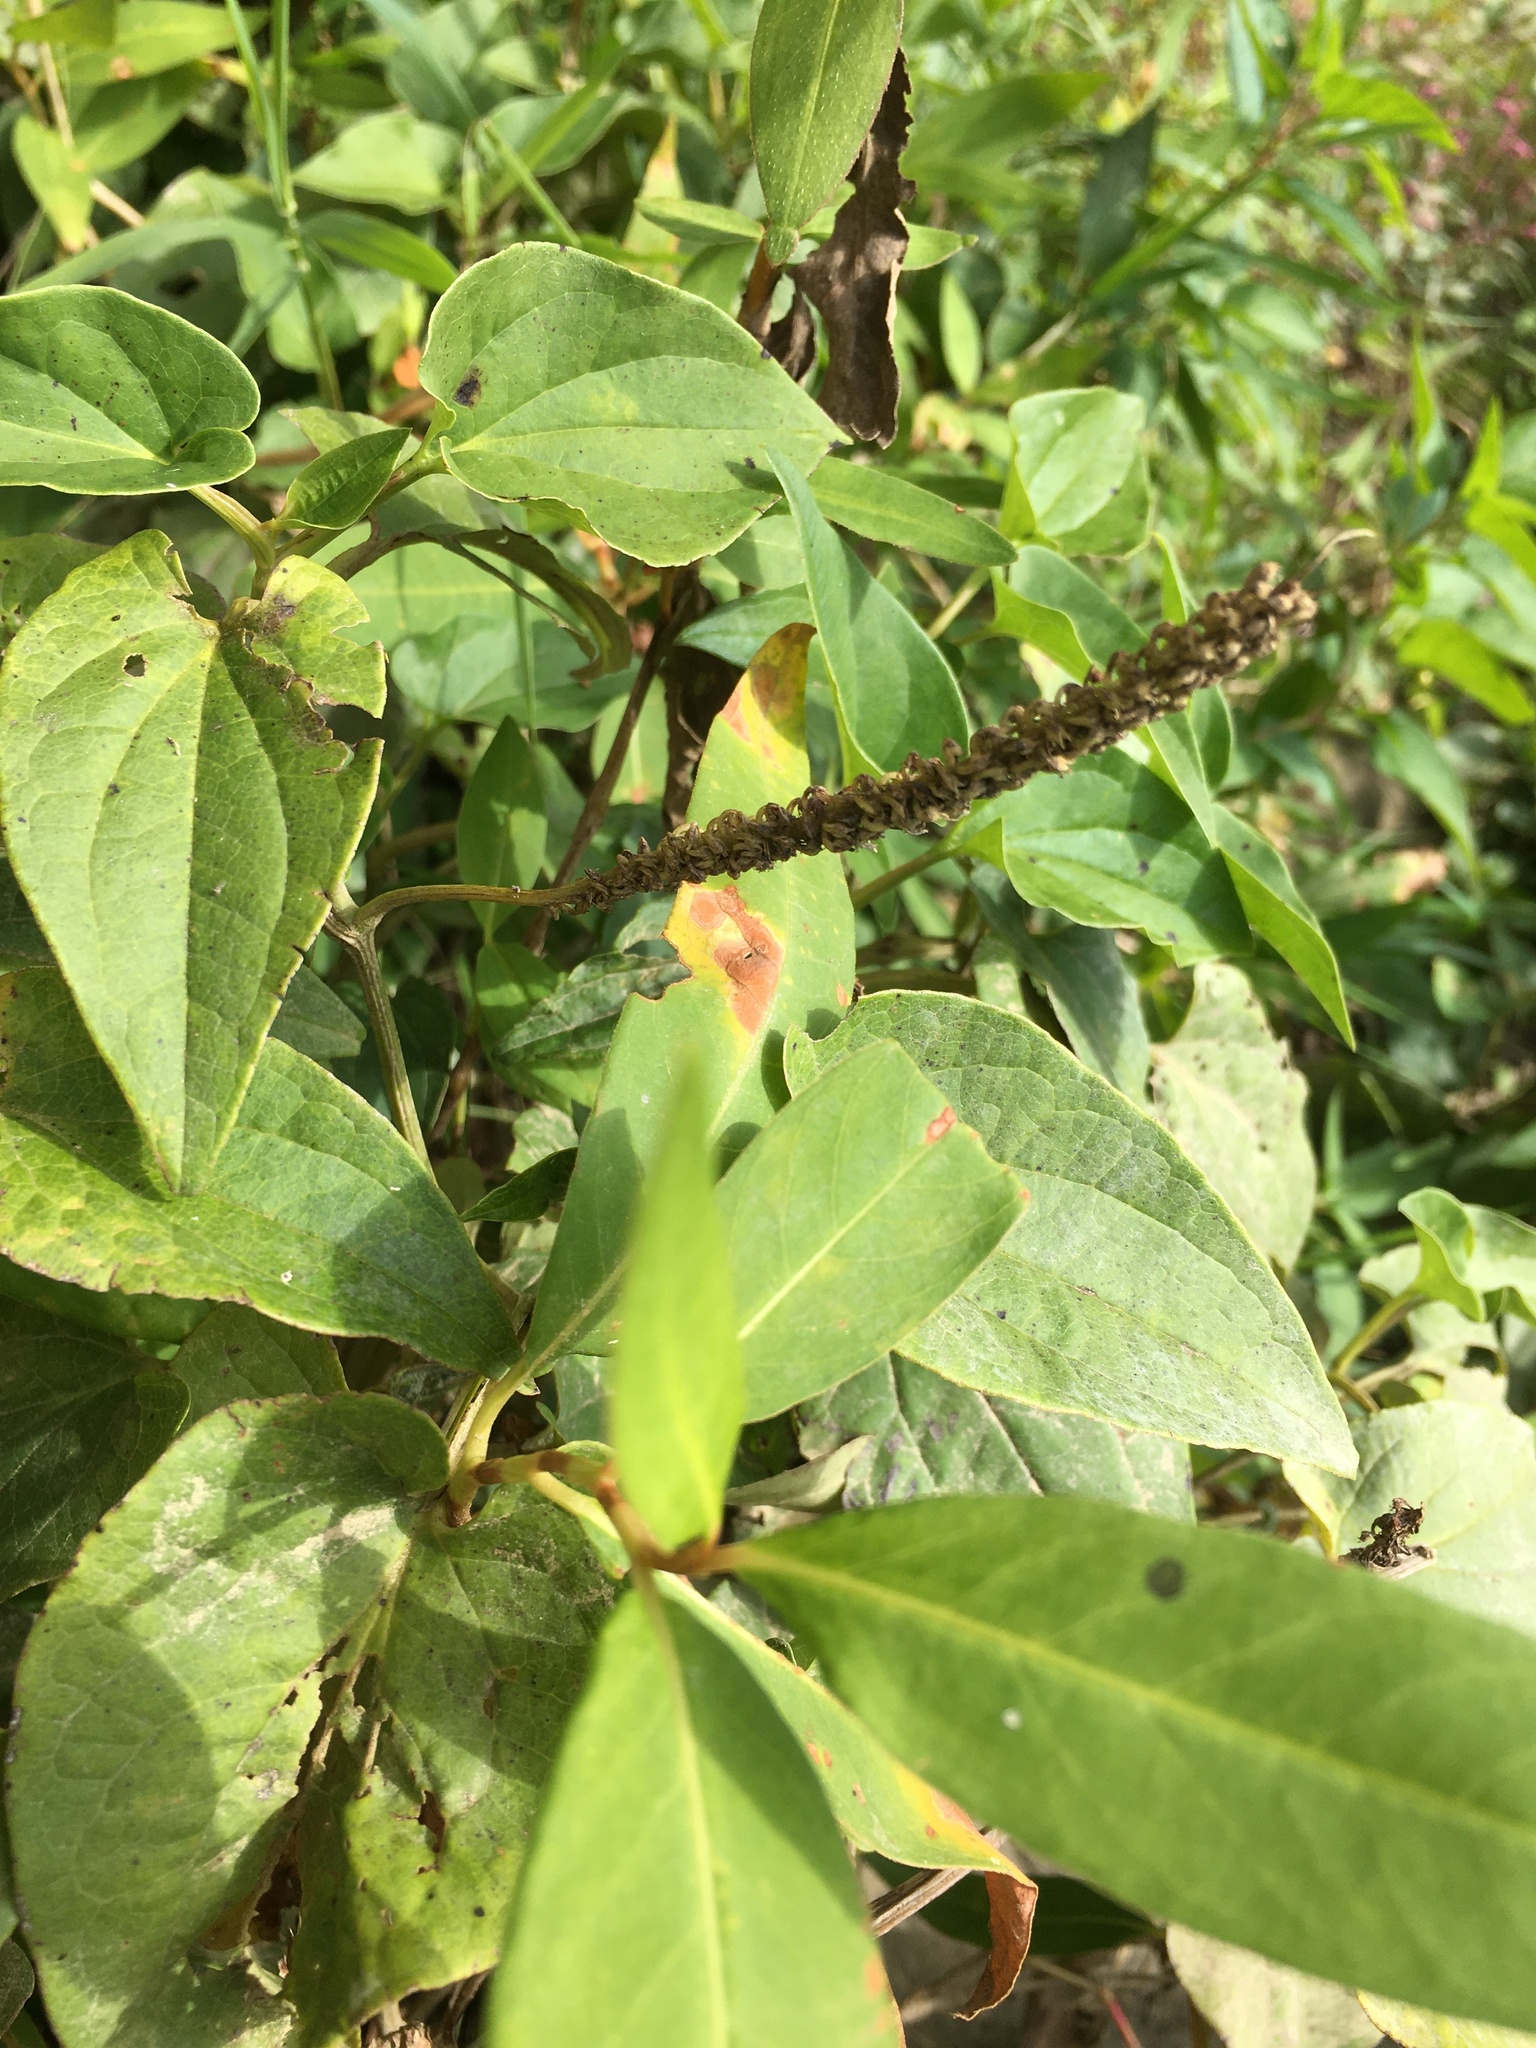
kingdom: Plantae
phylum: Tracheophyta
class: Magnoliopsida
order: Piperales
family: Saururaceae
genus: Saururus
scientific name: Saururus cernuus
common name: Lizard's-tail
